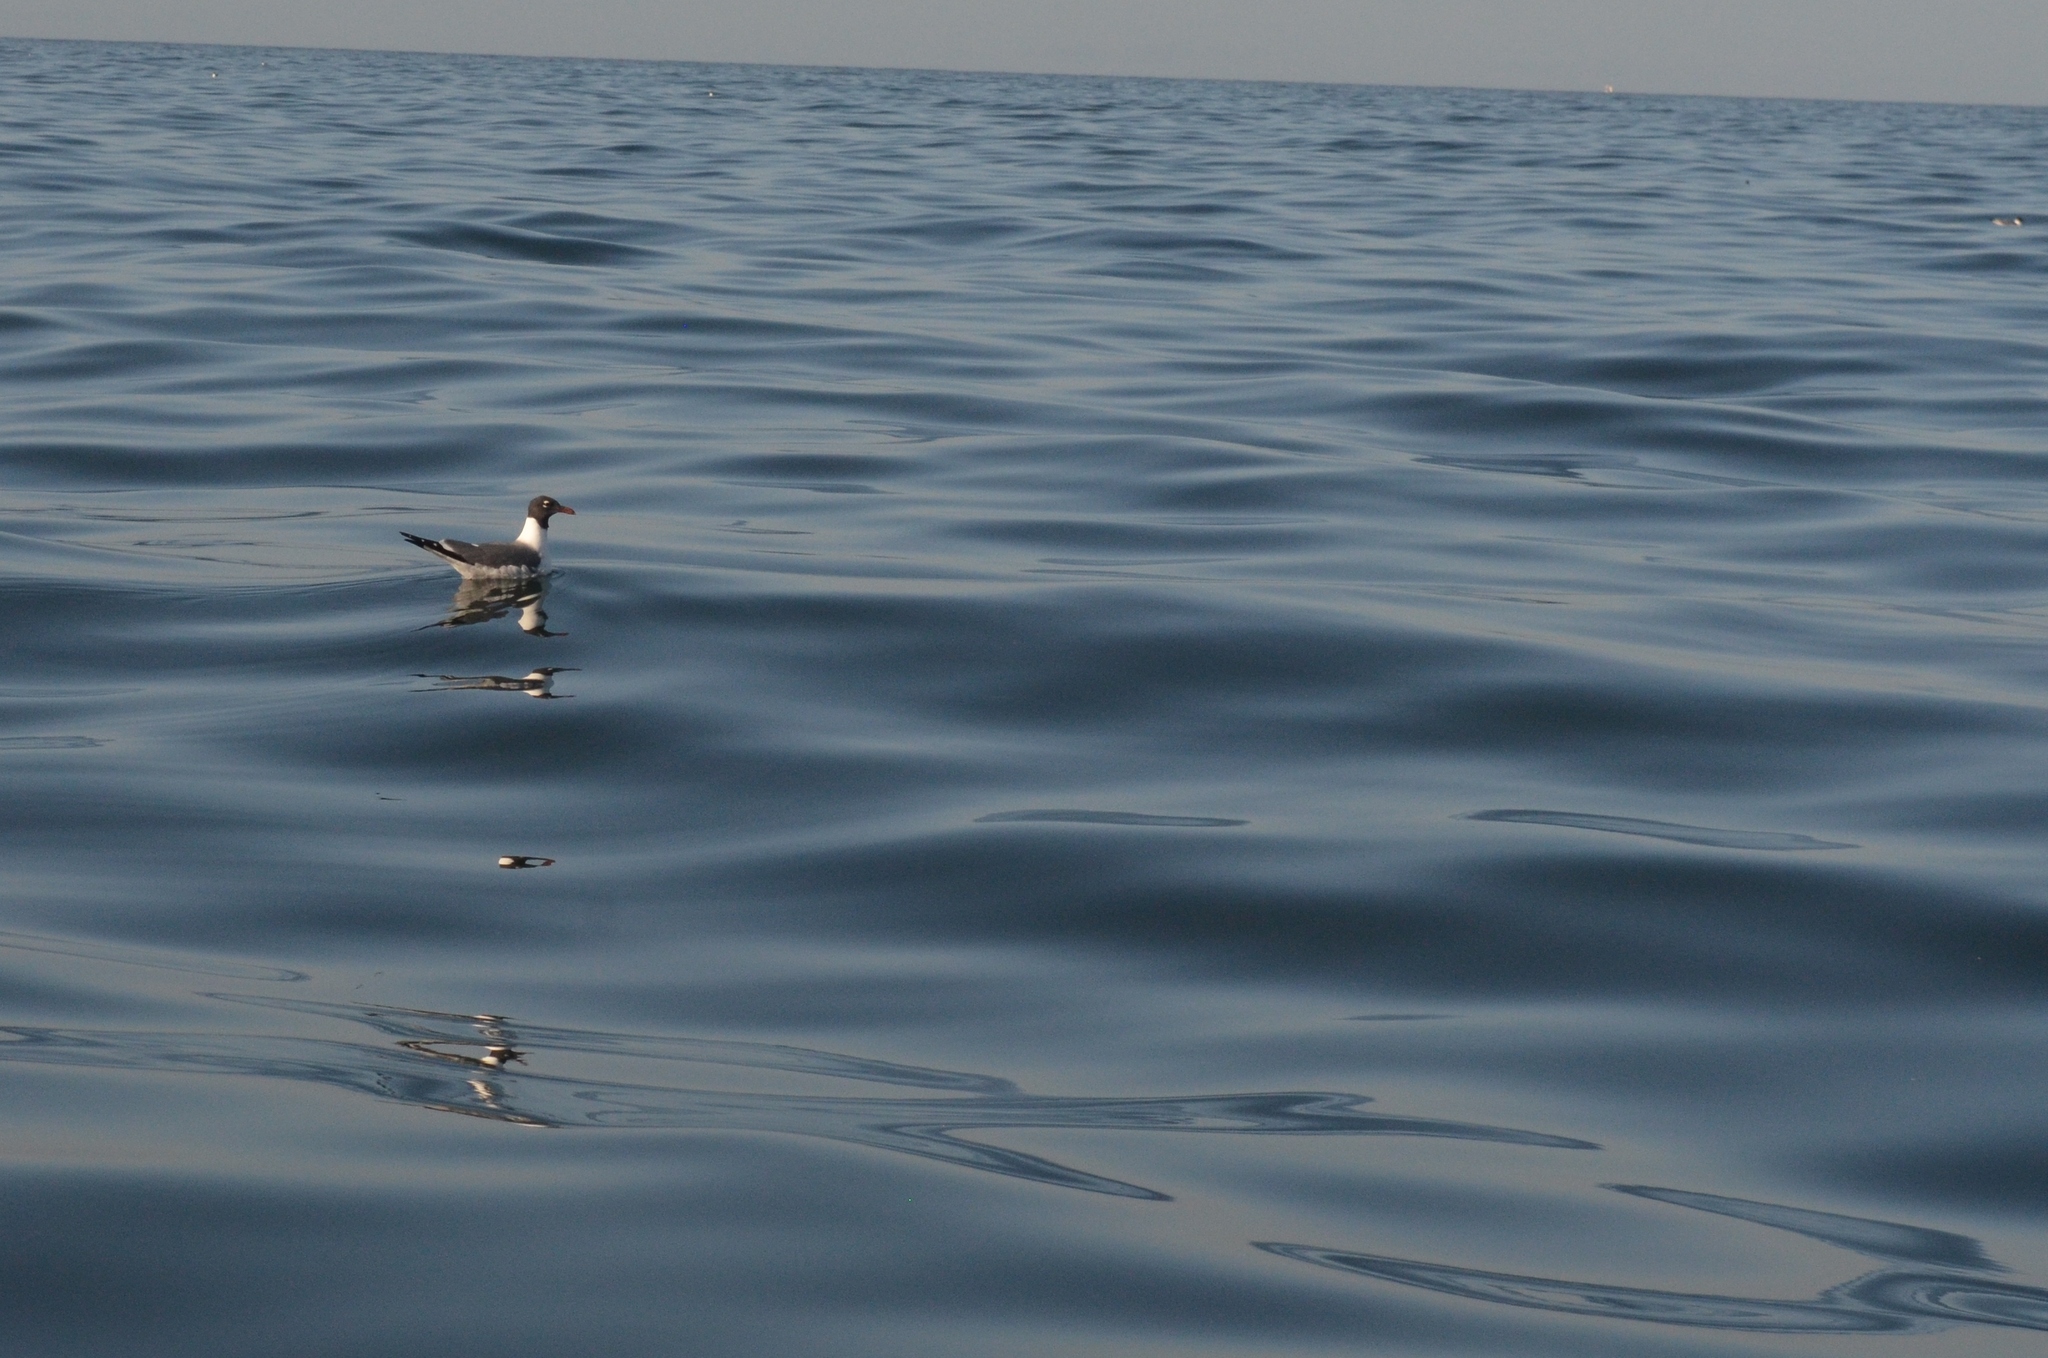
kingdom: Animalia
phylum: Chordata
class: Aves
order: Charadriiformes
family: Laridae
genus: Leucophaeus
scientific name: Leucophaeus atricilla
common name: Laughing gull
